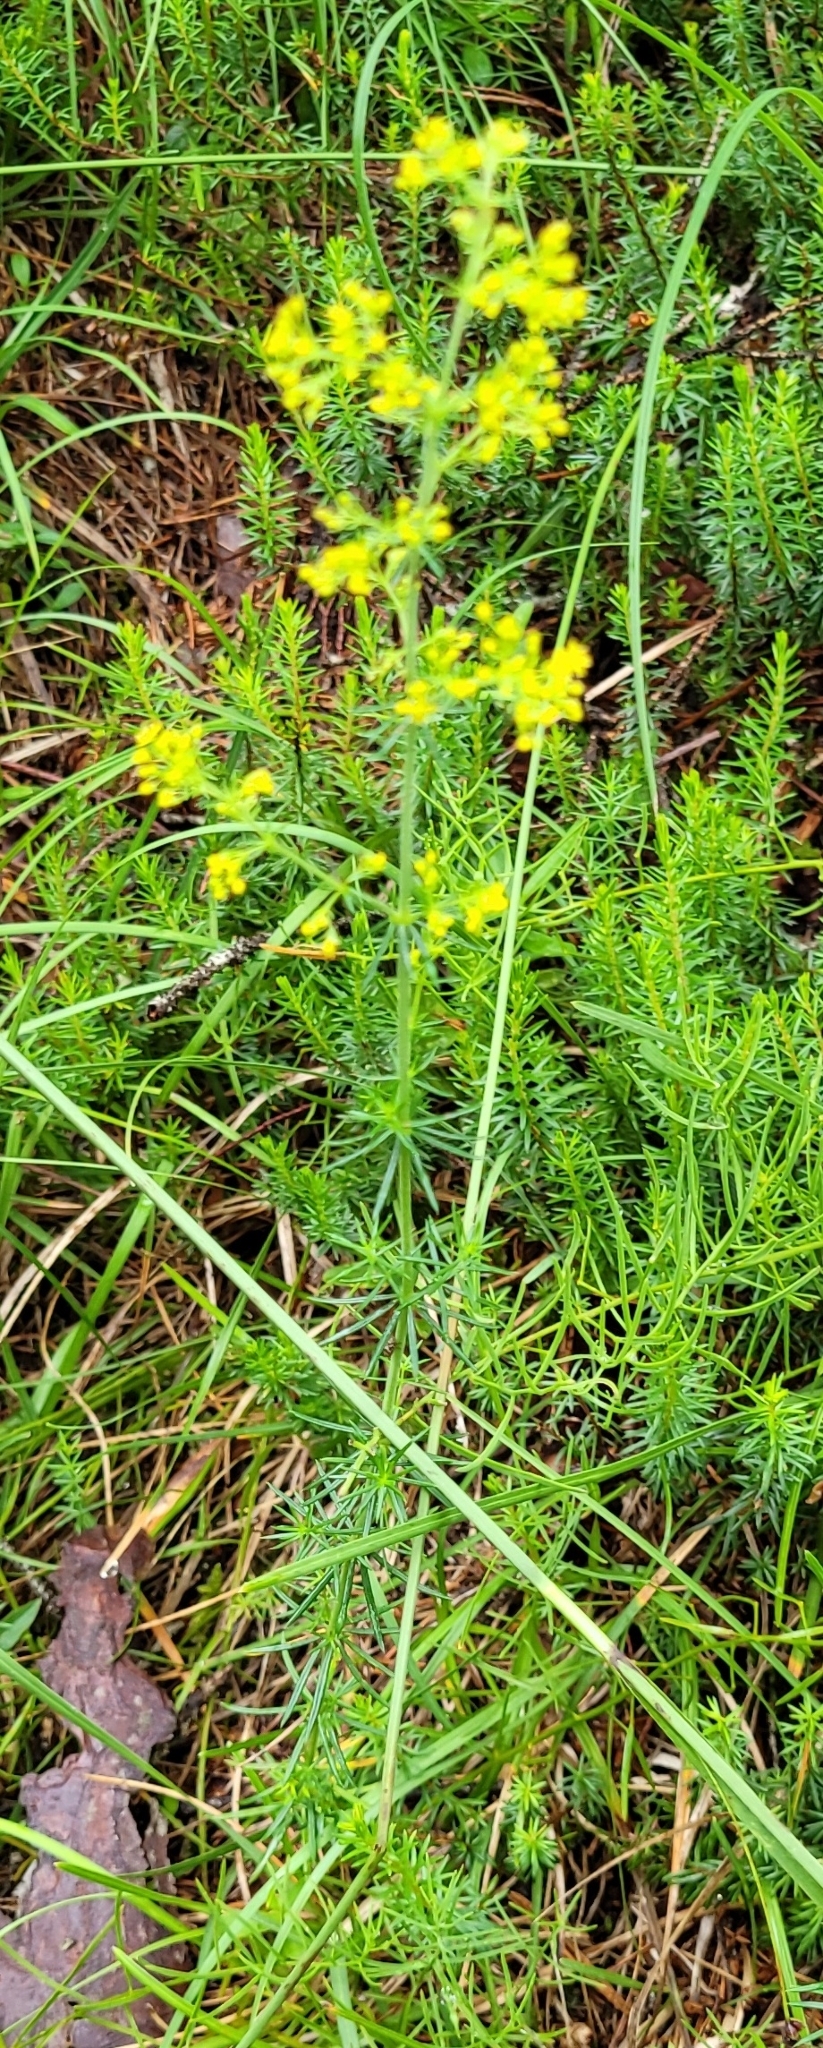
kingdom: Plantae
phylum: Tracheophyta
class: Magnoliopsida
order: Gentianales
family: Rubiaceae
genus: Galium
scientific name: Galium verum
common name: Lady's bedstraw
